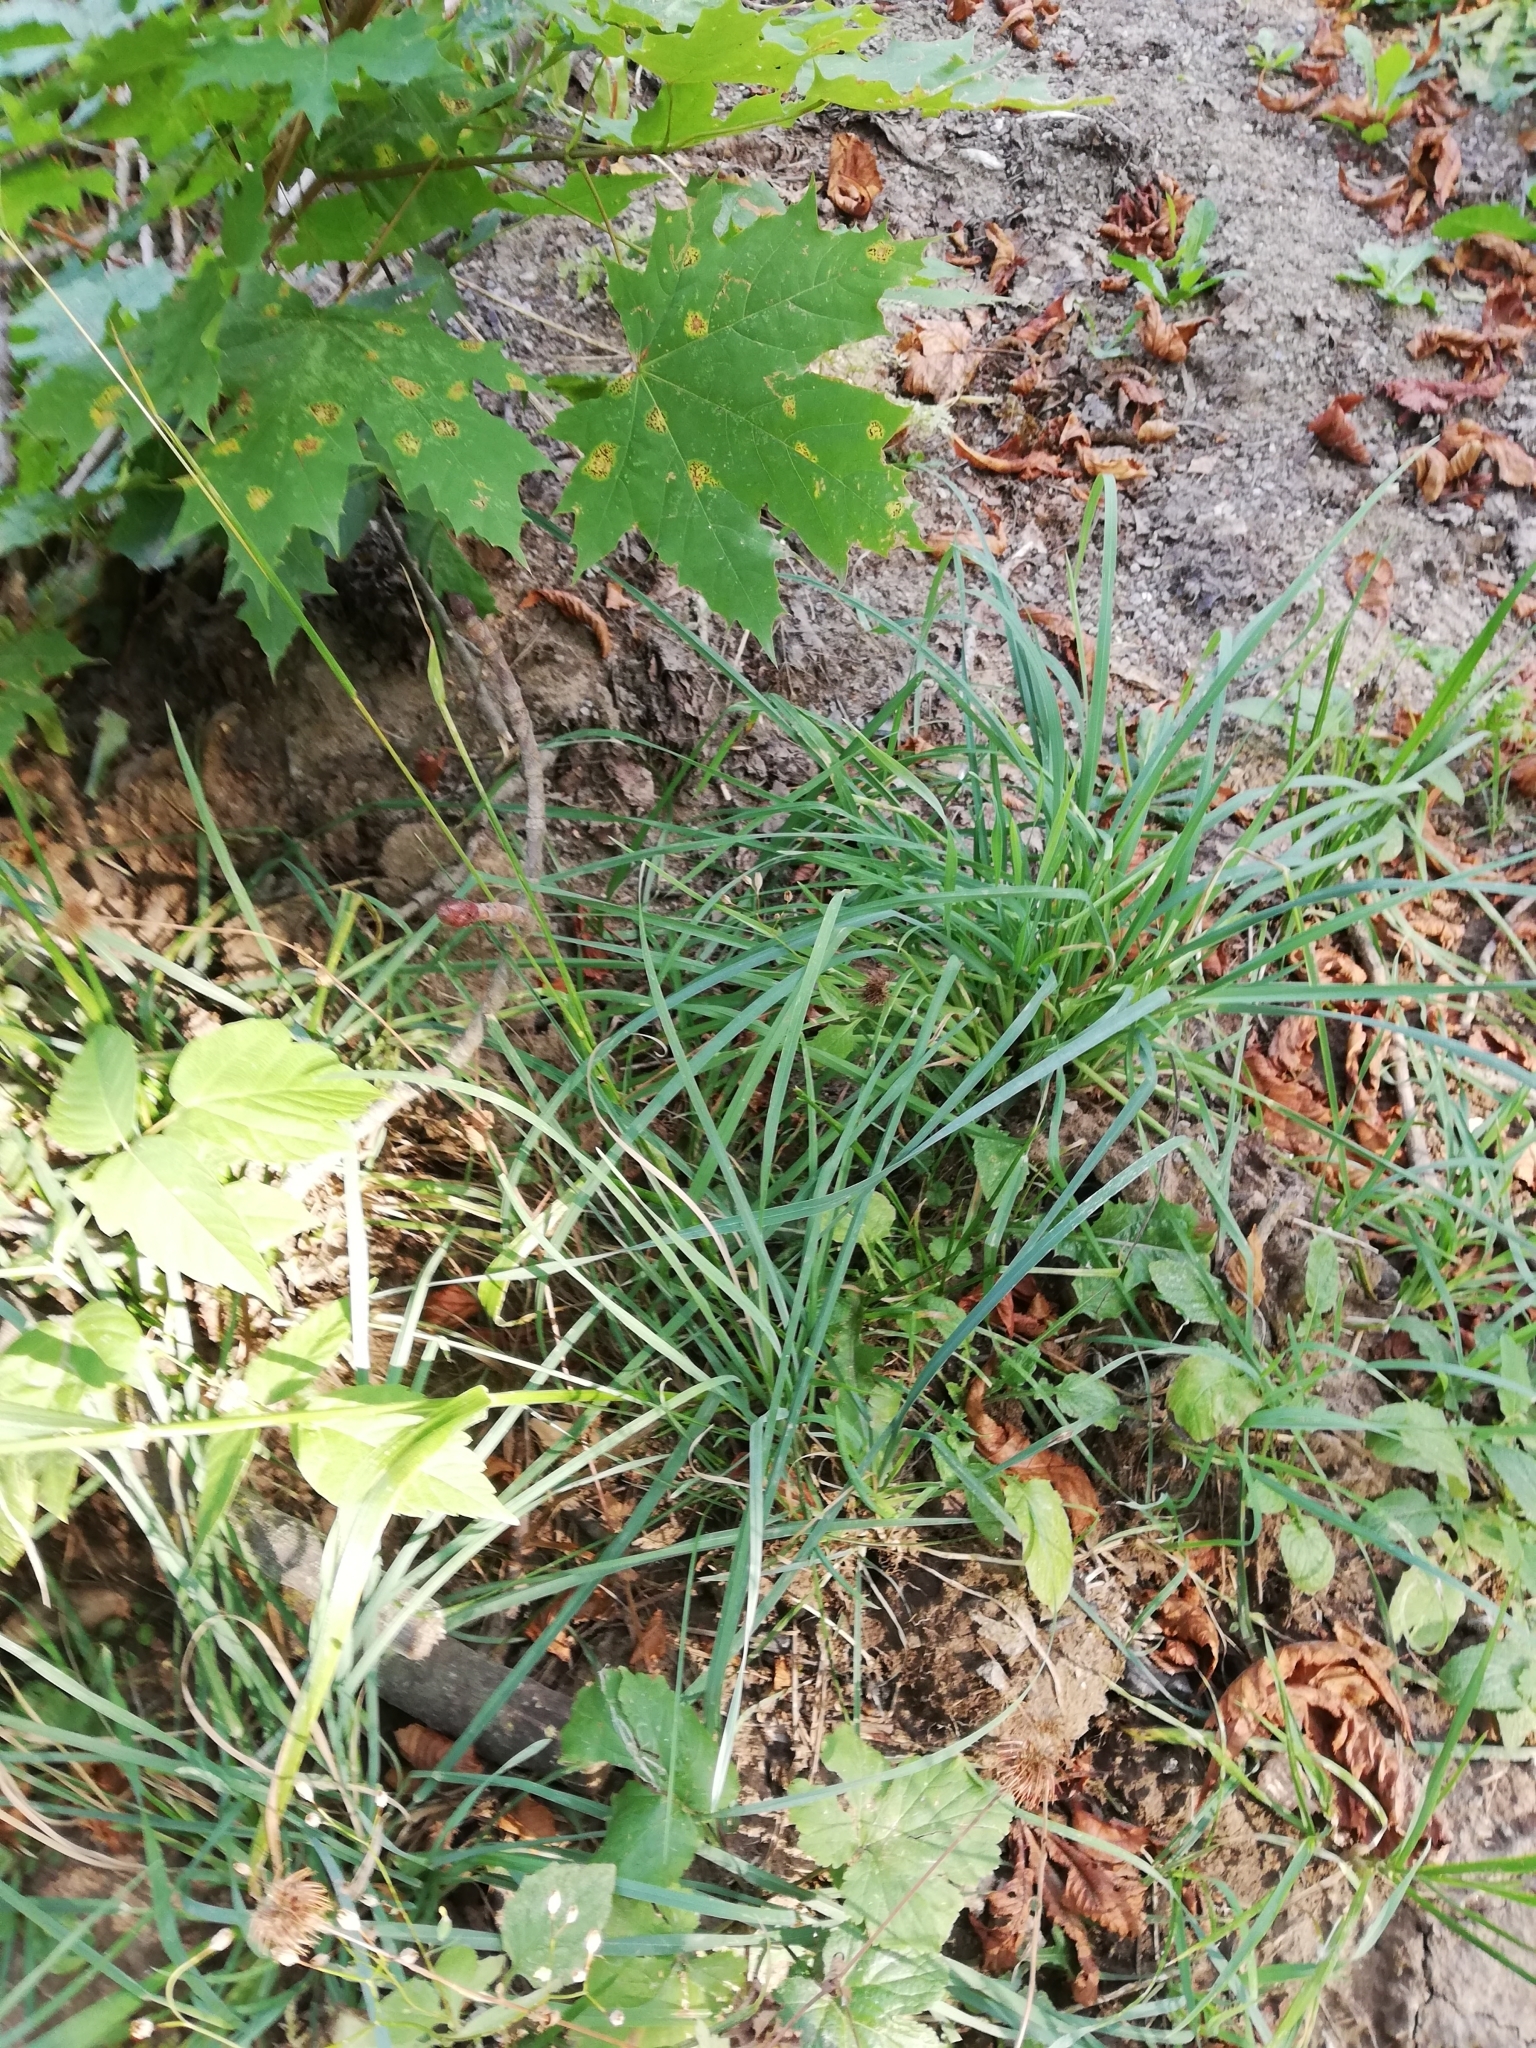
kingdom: Plantae
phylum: Tracheophyta
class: Liliopsida
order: Poales
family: Poaceae
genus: Lolium
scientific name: Lolium giganteum
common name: Giant fescue
